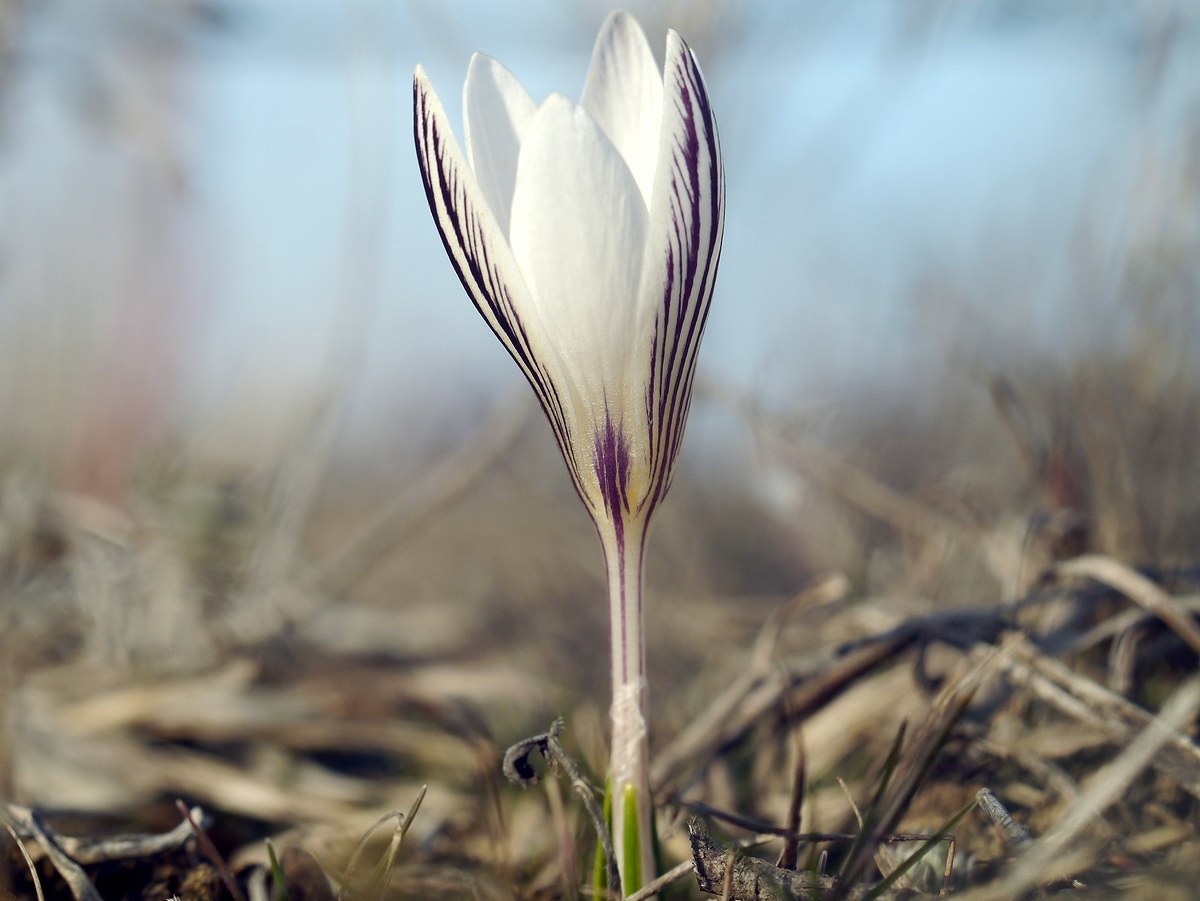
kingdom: Plantae
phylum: Tracheophyta
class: Liliopsida
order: Asparagales
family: Iridaceae
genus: Crocus
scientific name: Crocus reticulatus
